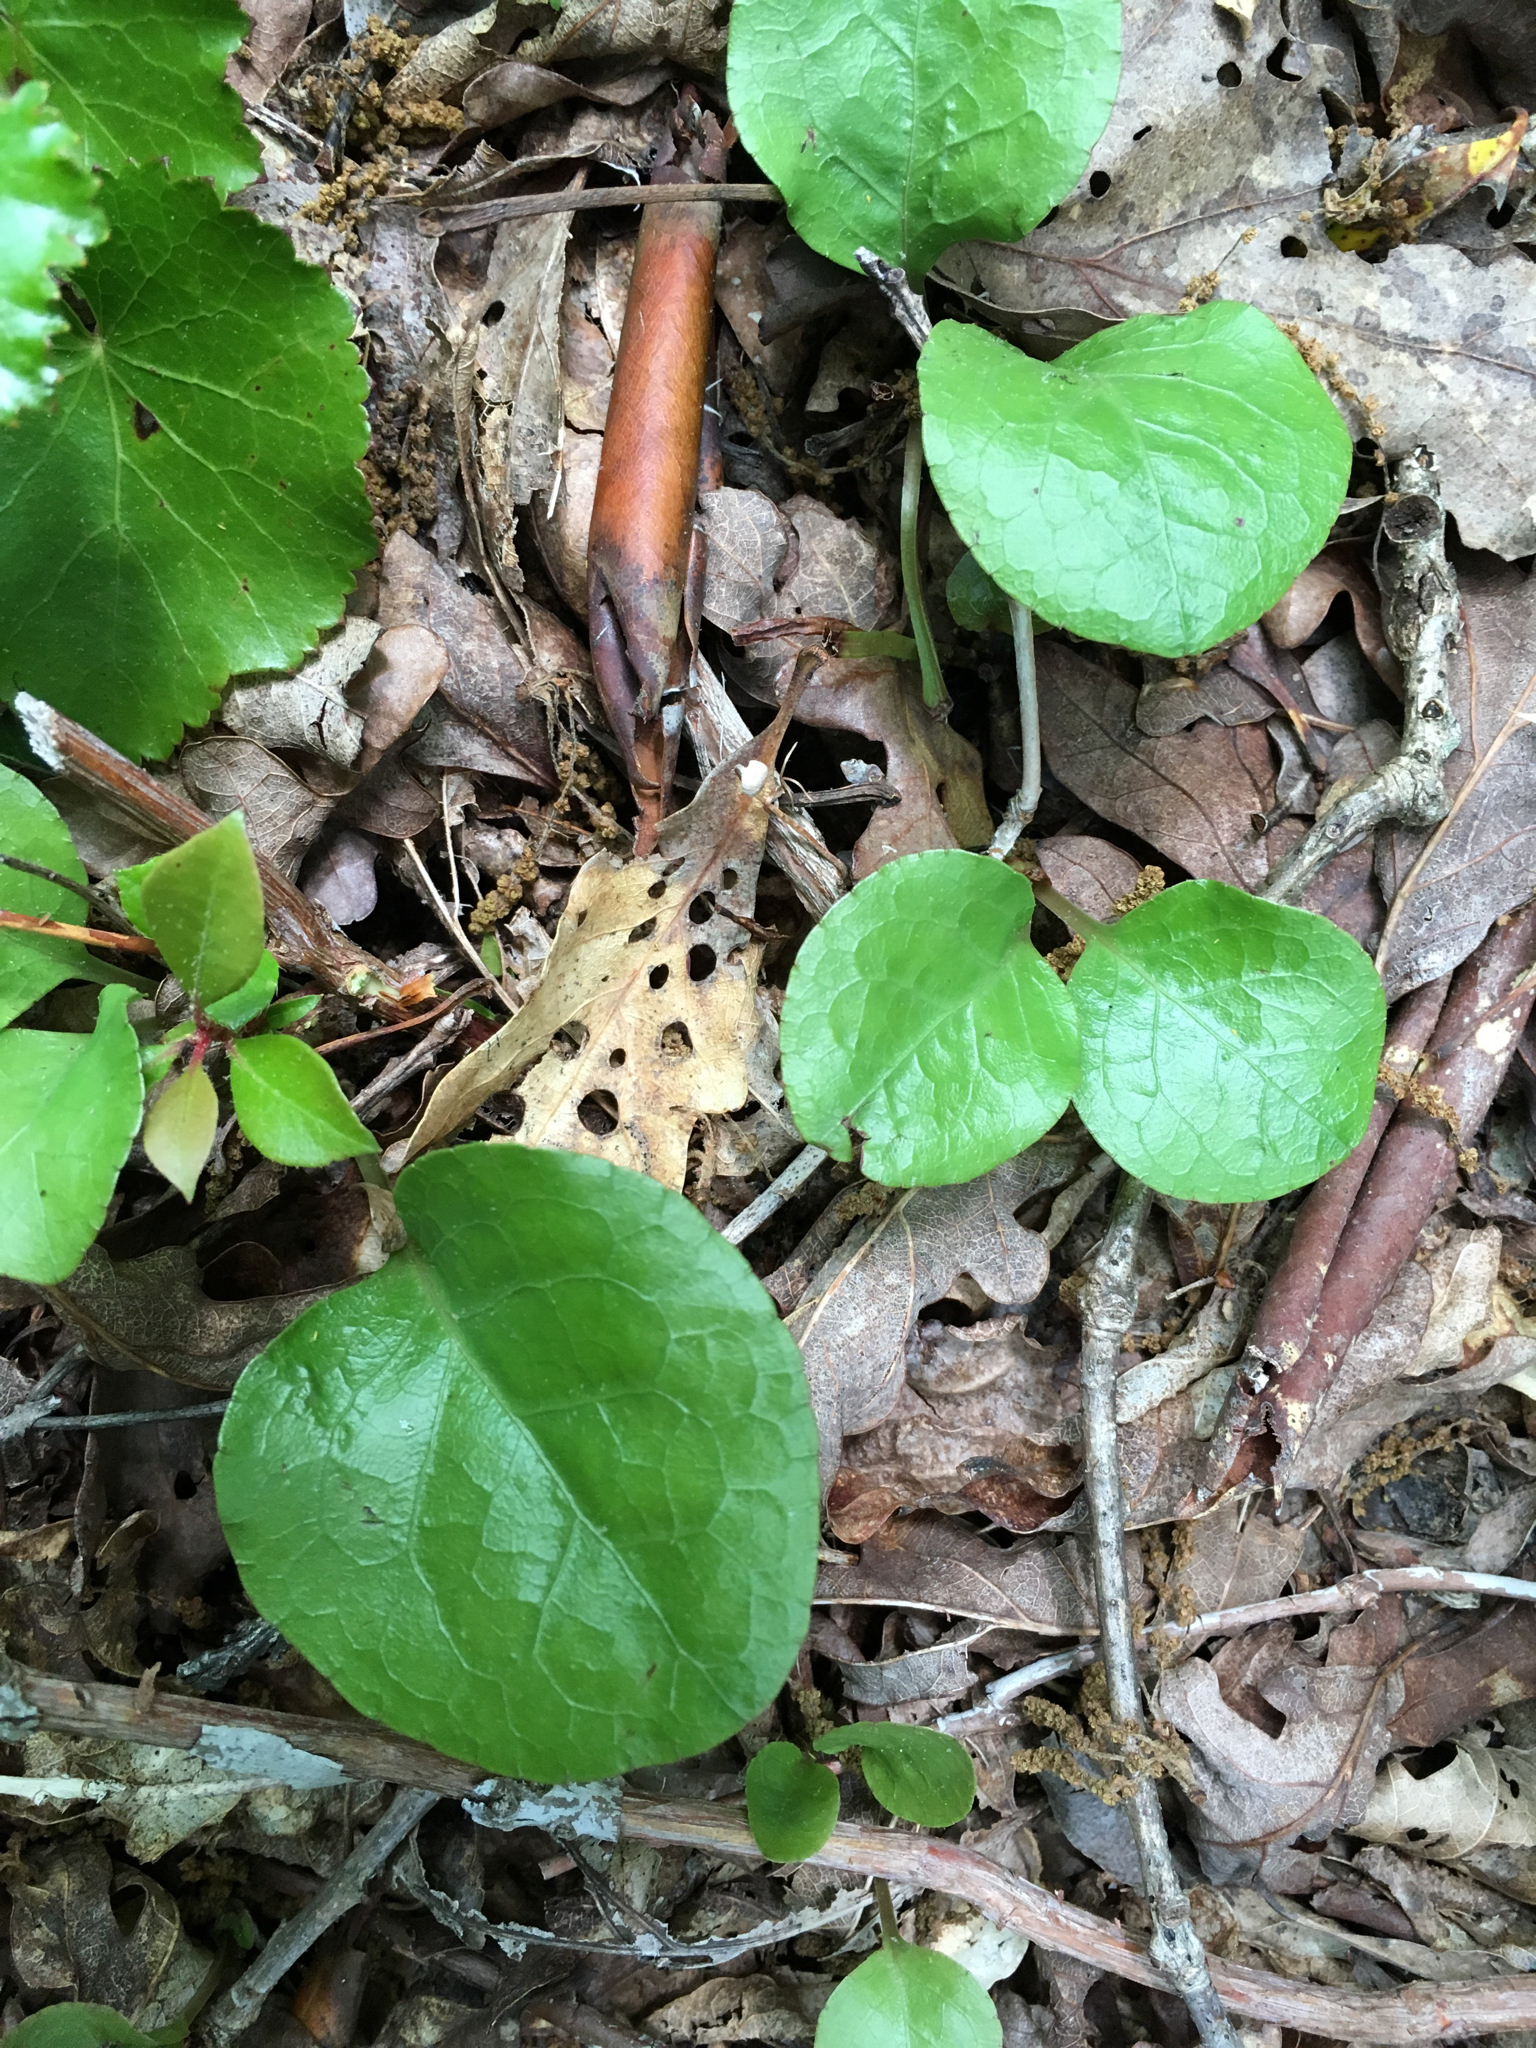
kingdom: Plantae
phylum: Tracheophyta
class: Magnoliopsida
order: Ericales
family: Ericaceae
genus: Pyrola
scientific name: Pyrola americana
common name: American wintergreen
